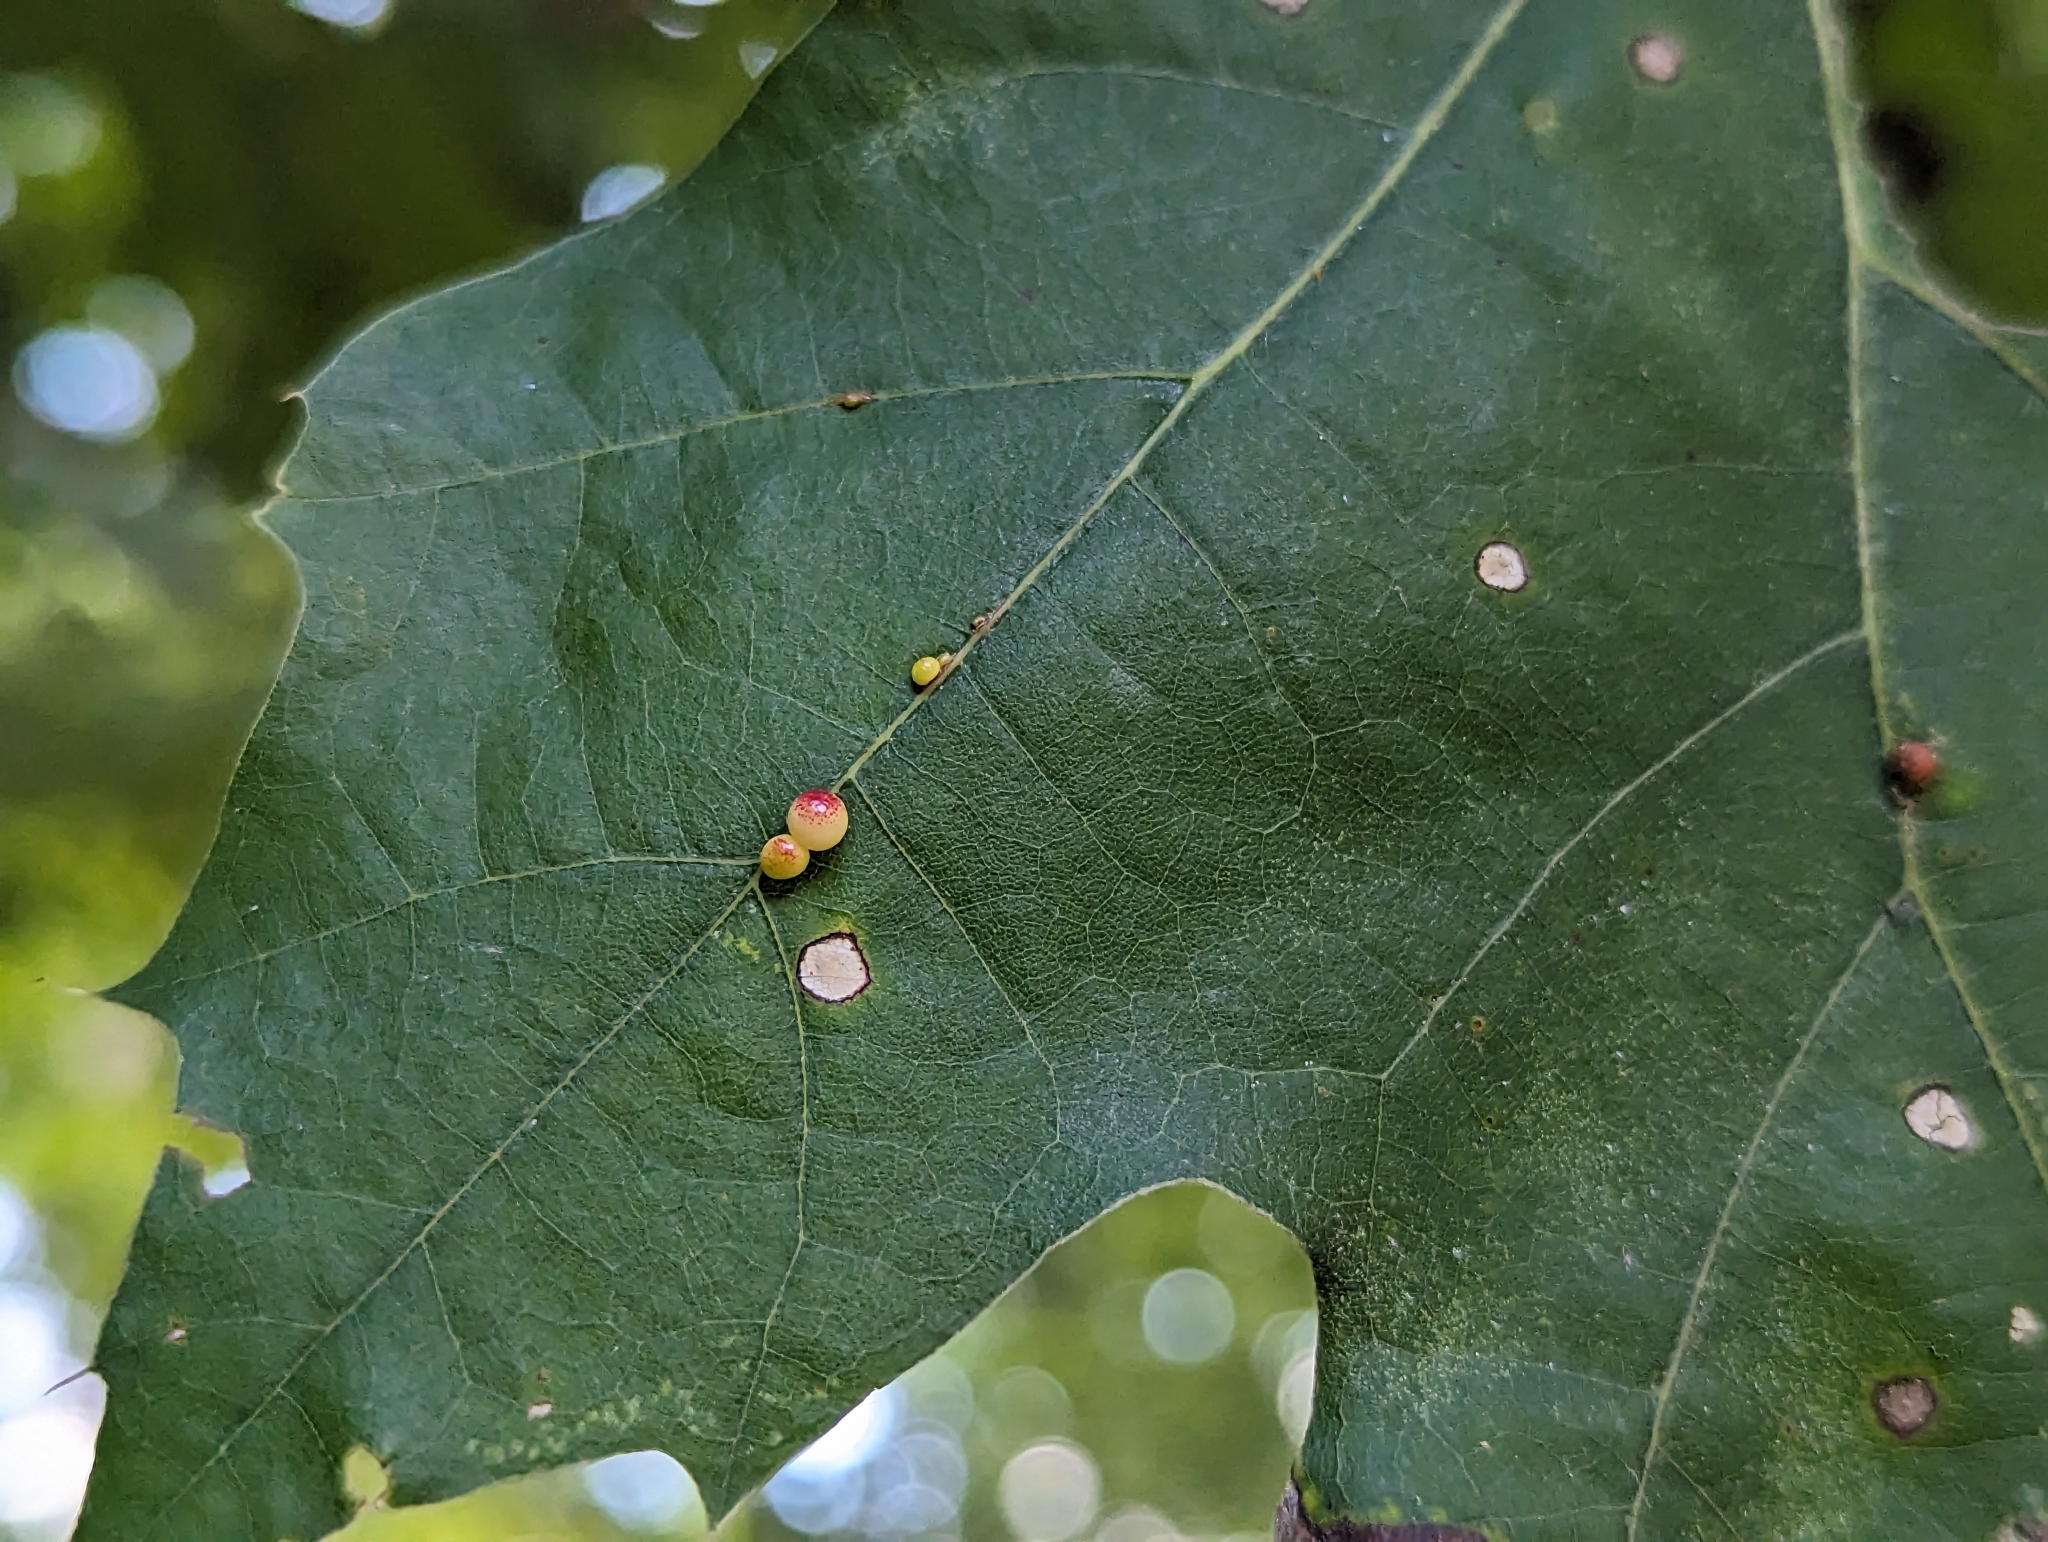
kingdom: Animalia
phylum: Arthropoda
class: Insecta
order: Hymenoptera
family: Cynipidae
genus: Zopheroteras
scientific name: Zopheroteras
